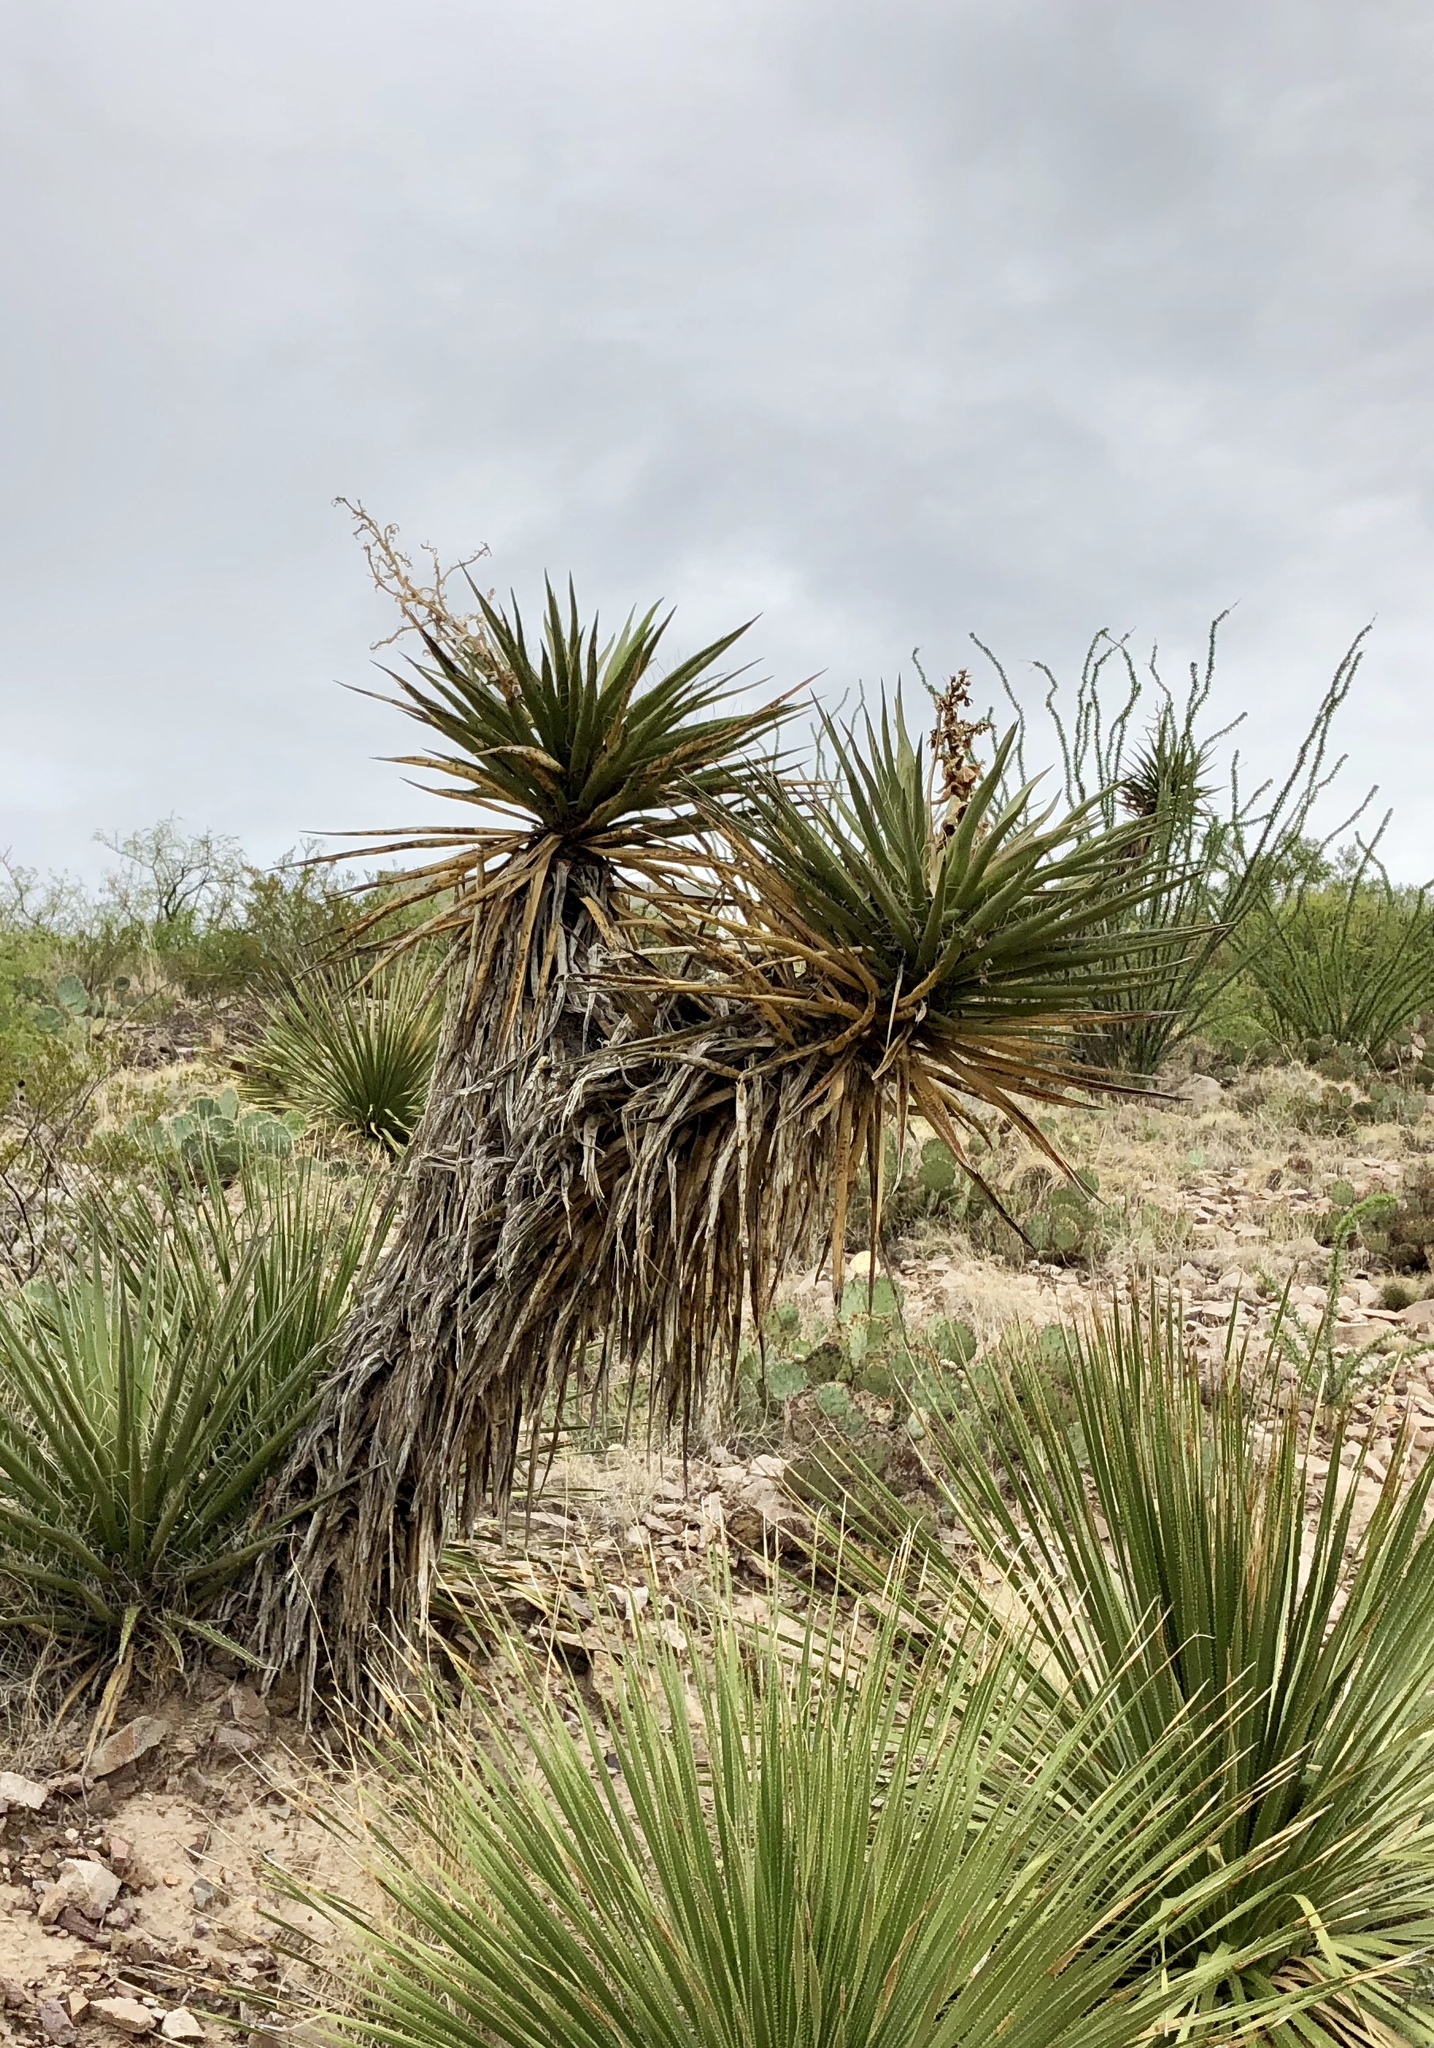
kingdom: Plantae
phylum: Tracheophyta
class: Liliopsida
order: Asparagales
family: Asparagaceae
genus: Yucca
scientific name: Yucca treculiana
